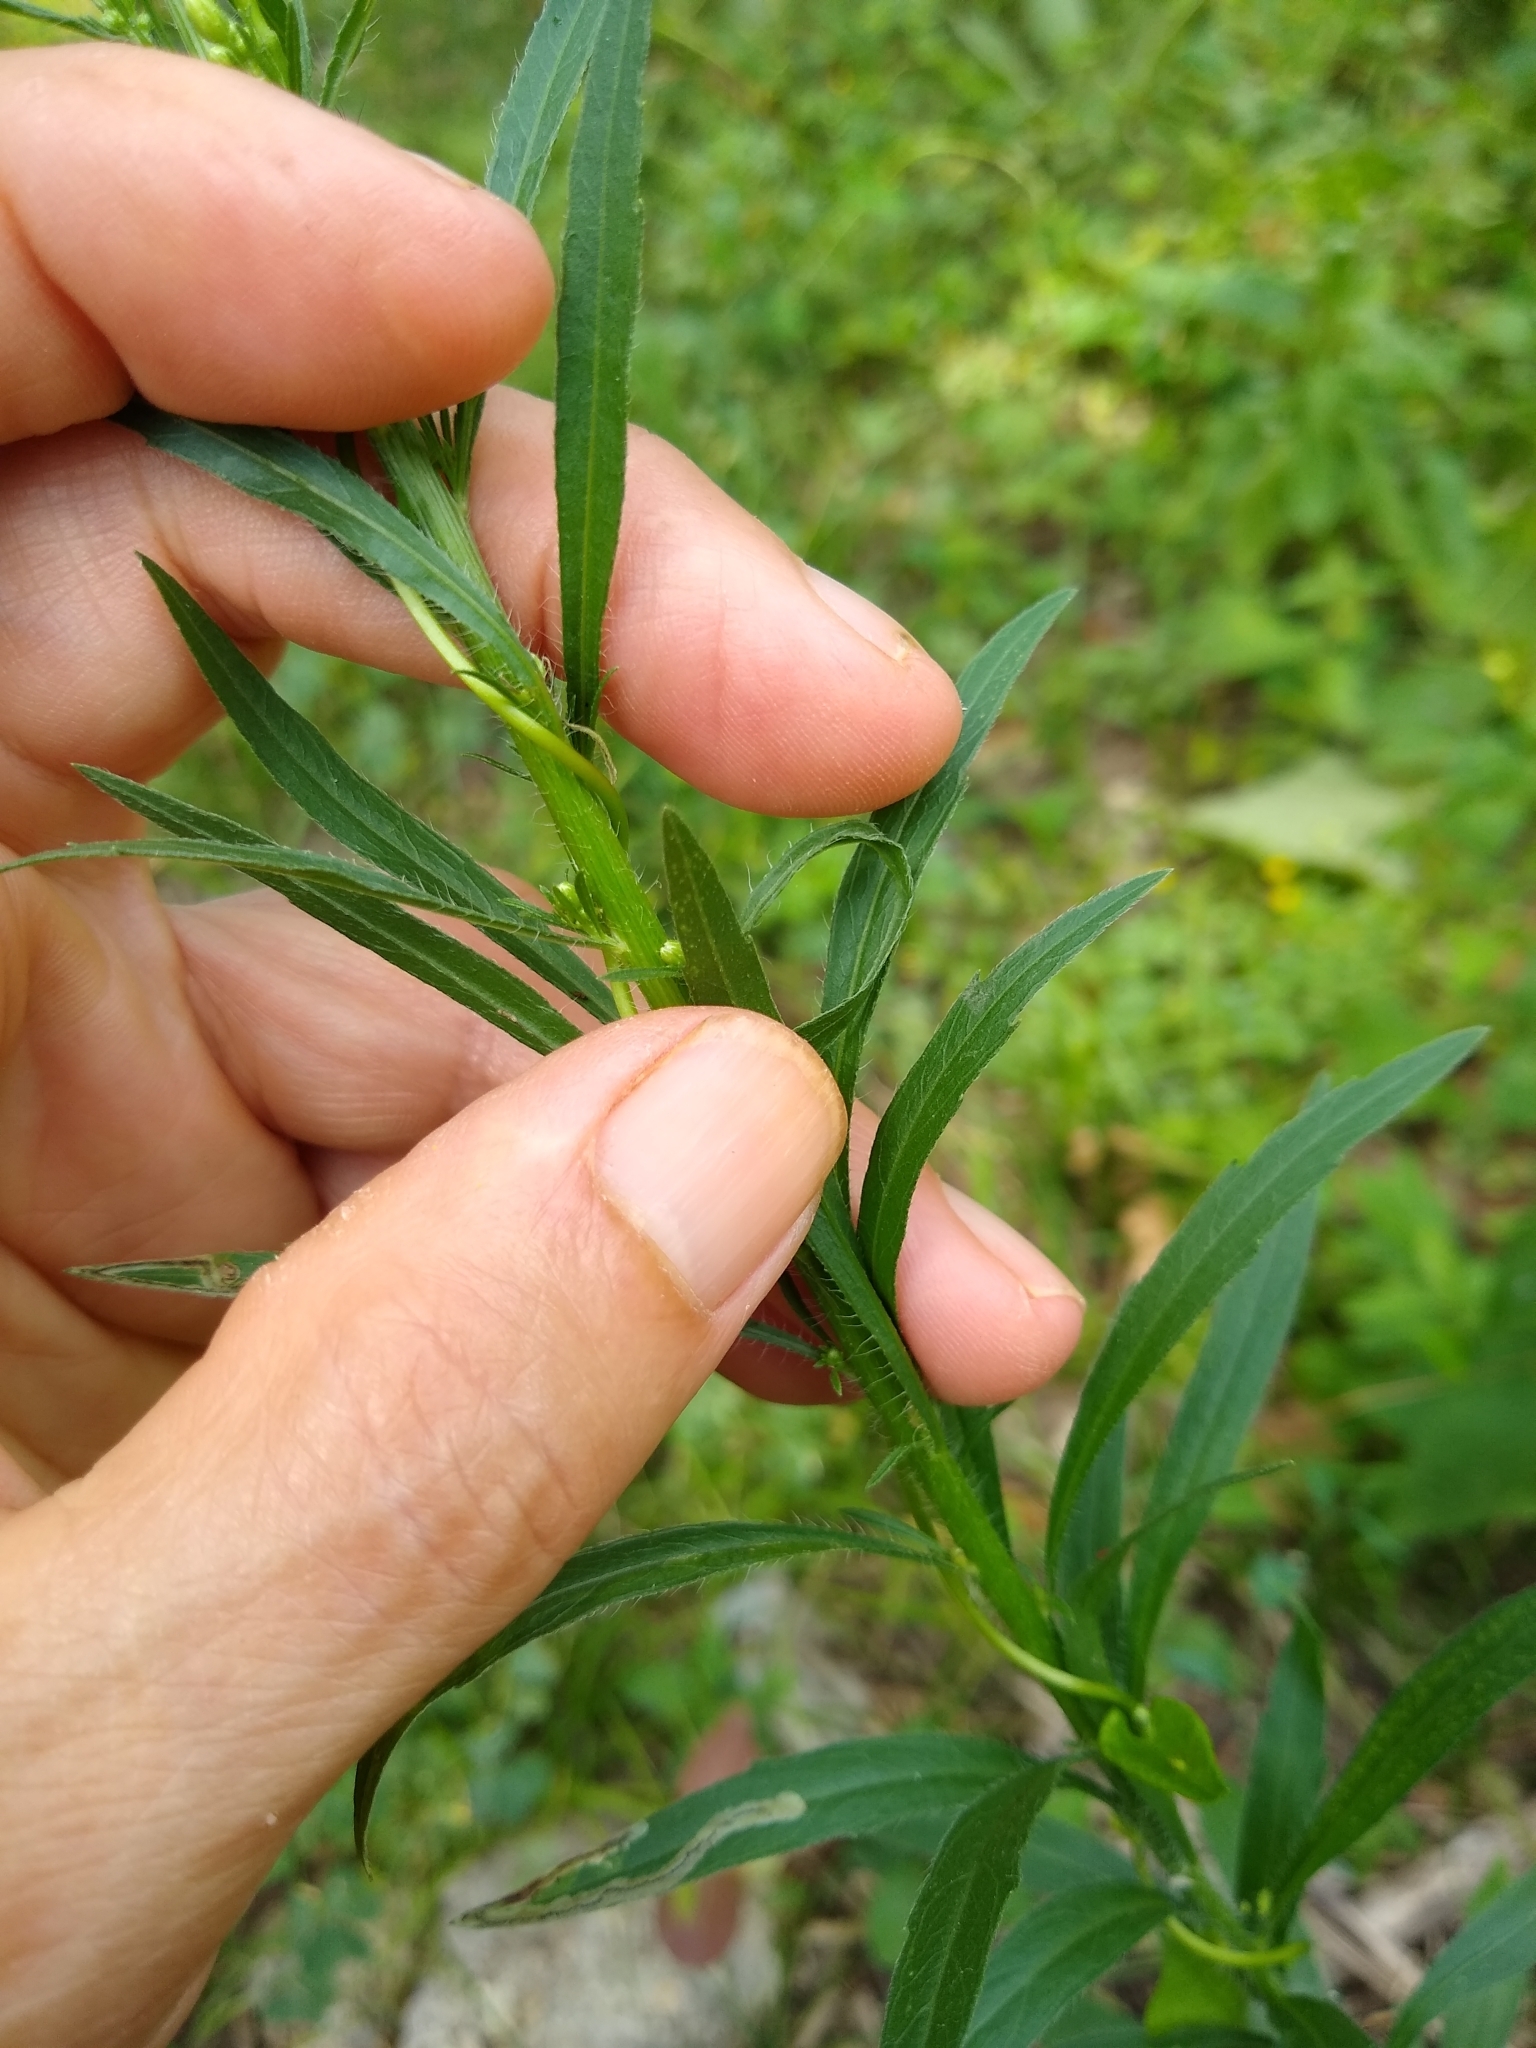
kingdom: Plantae
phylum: Tracheophyta
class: Magnoliopsida
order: Asterales
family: Asteraceae
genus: Erigeron
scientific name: Erigeron canadensis
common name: Canadian fleabane
